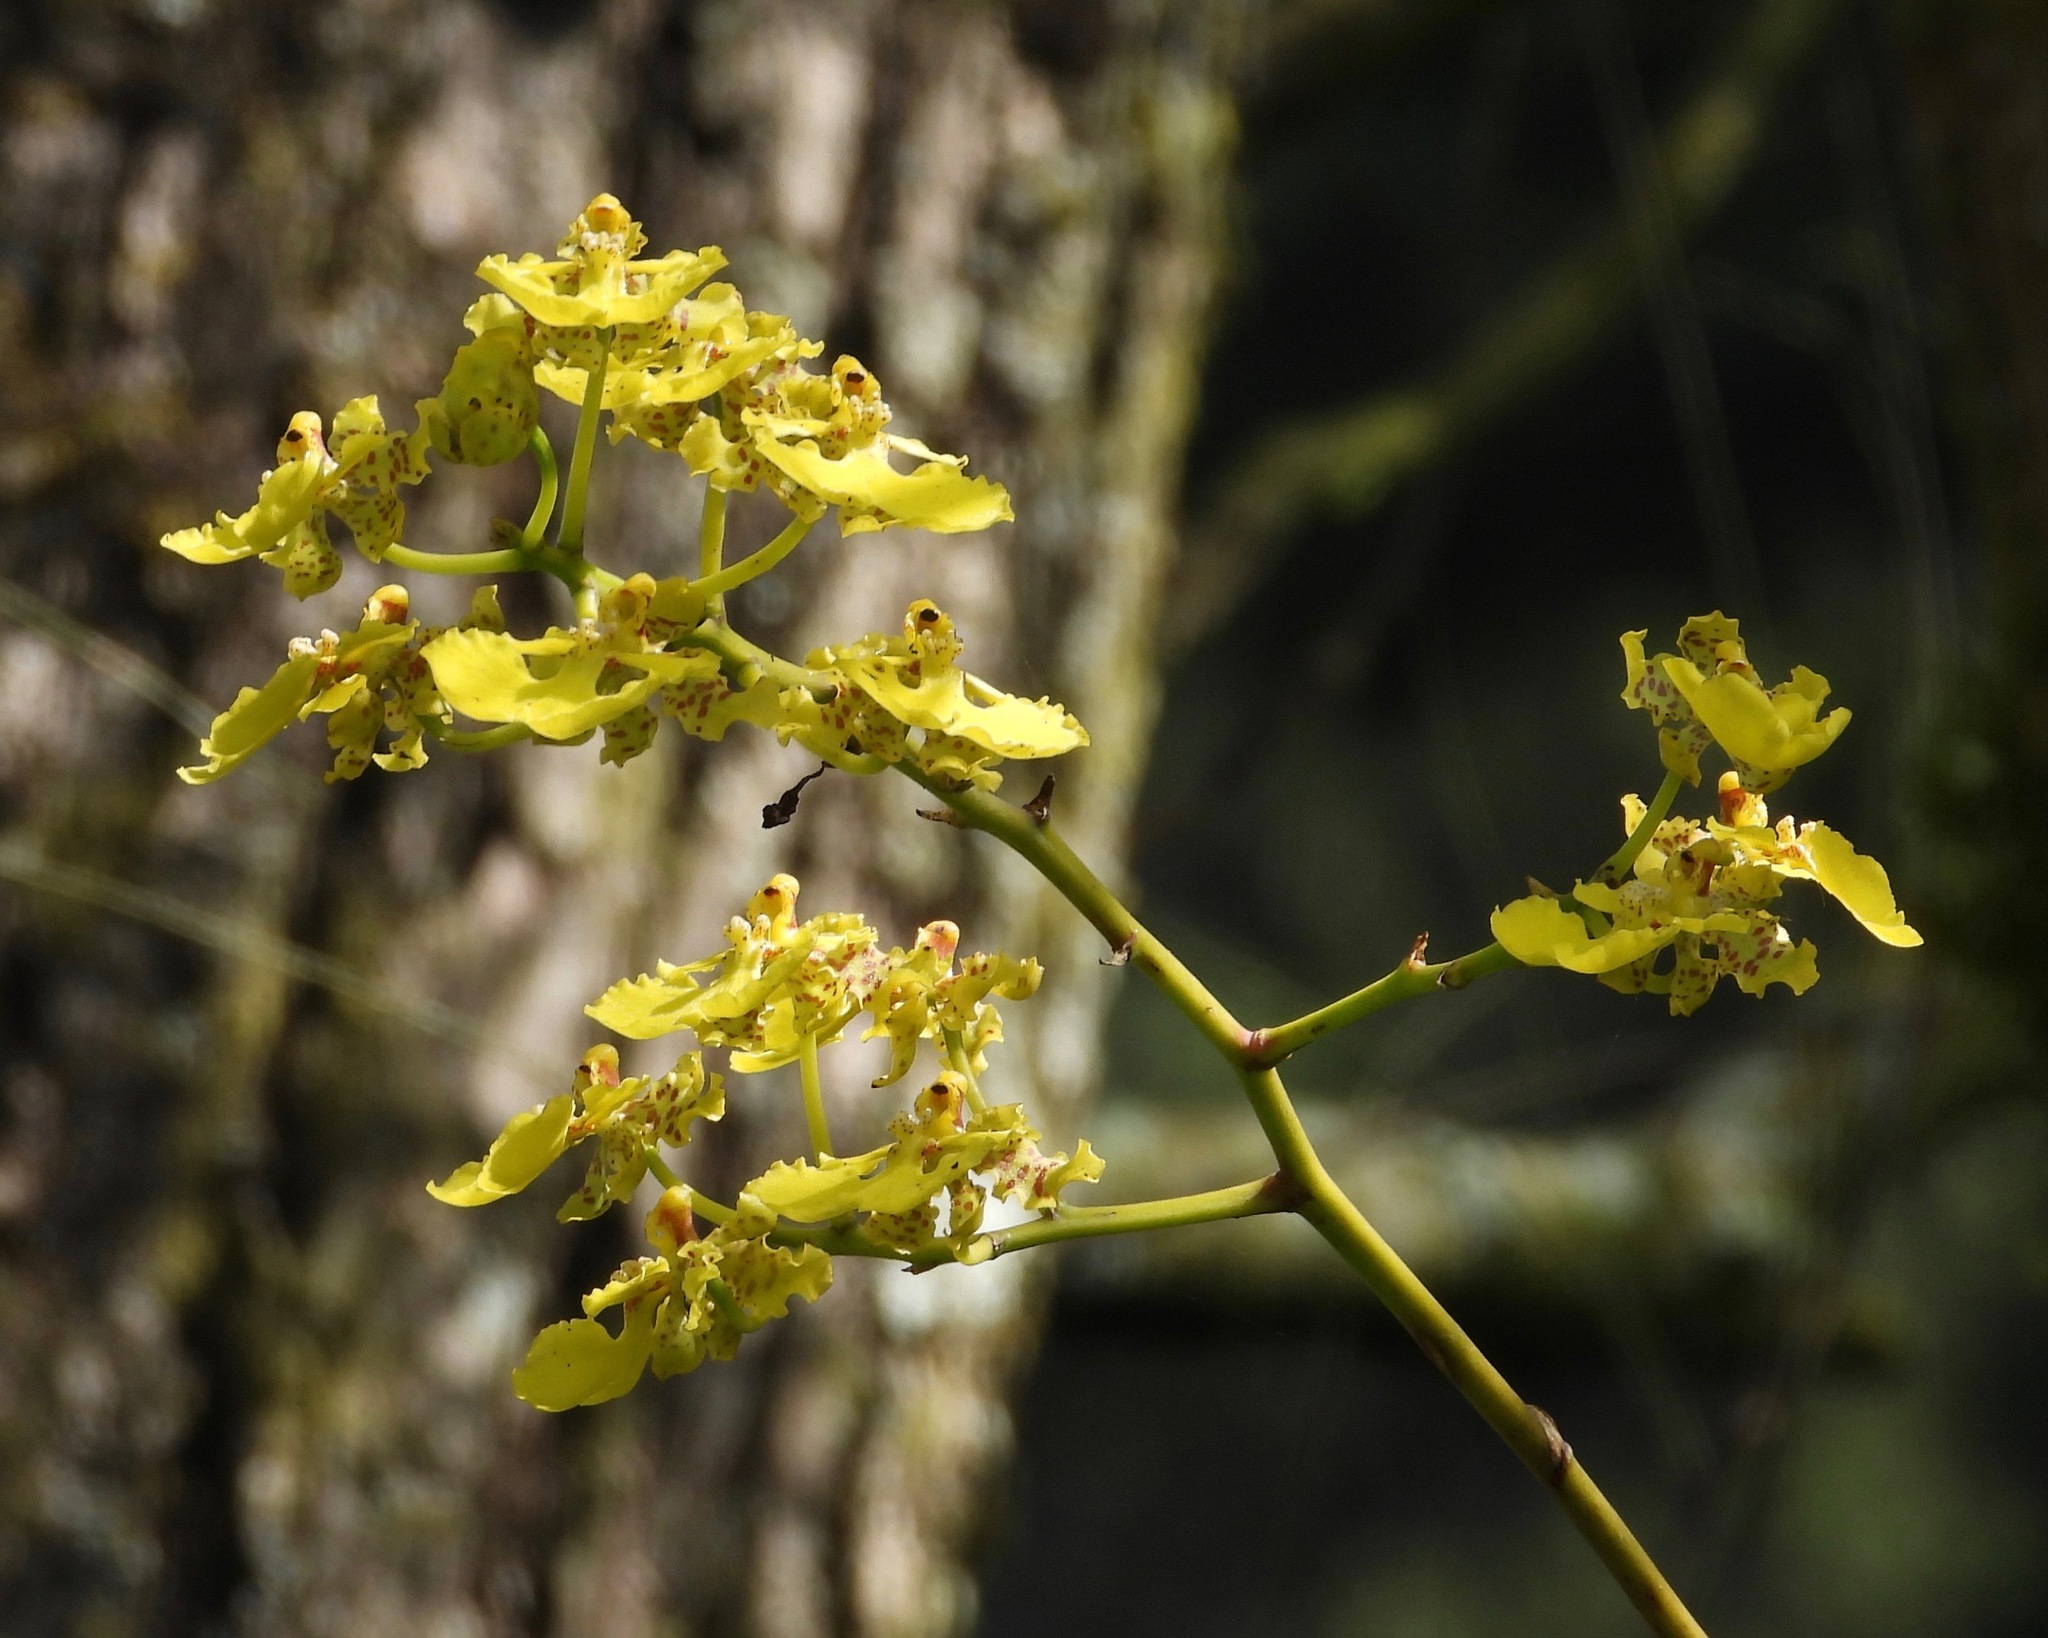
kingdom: Plantae
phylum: Tracheophyta
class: Liliopsida
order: Asparagales
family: Orchidaceae
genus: Trichocentrum
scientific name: Trichocentrum cavendishianum
